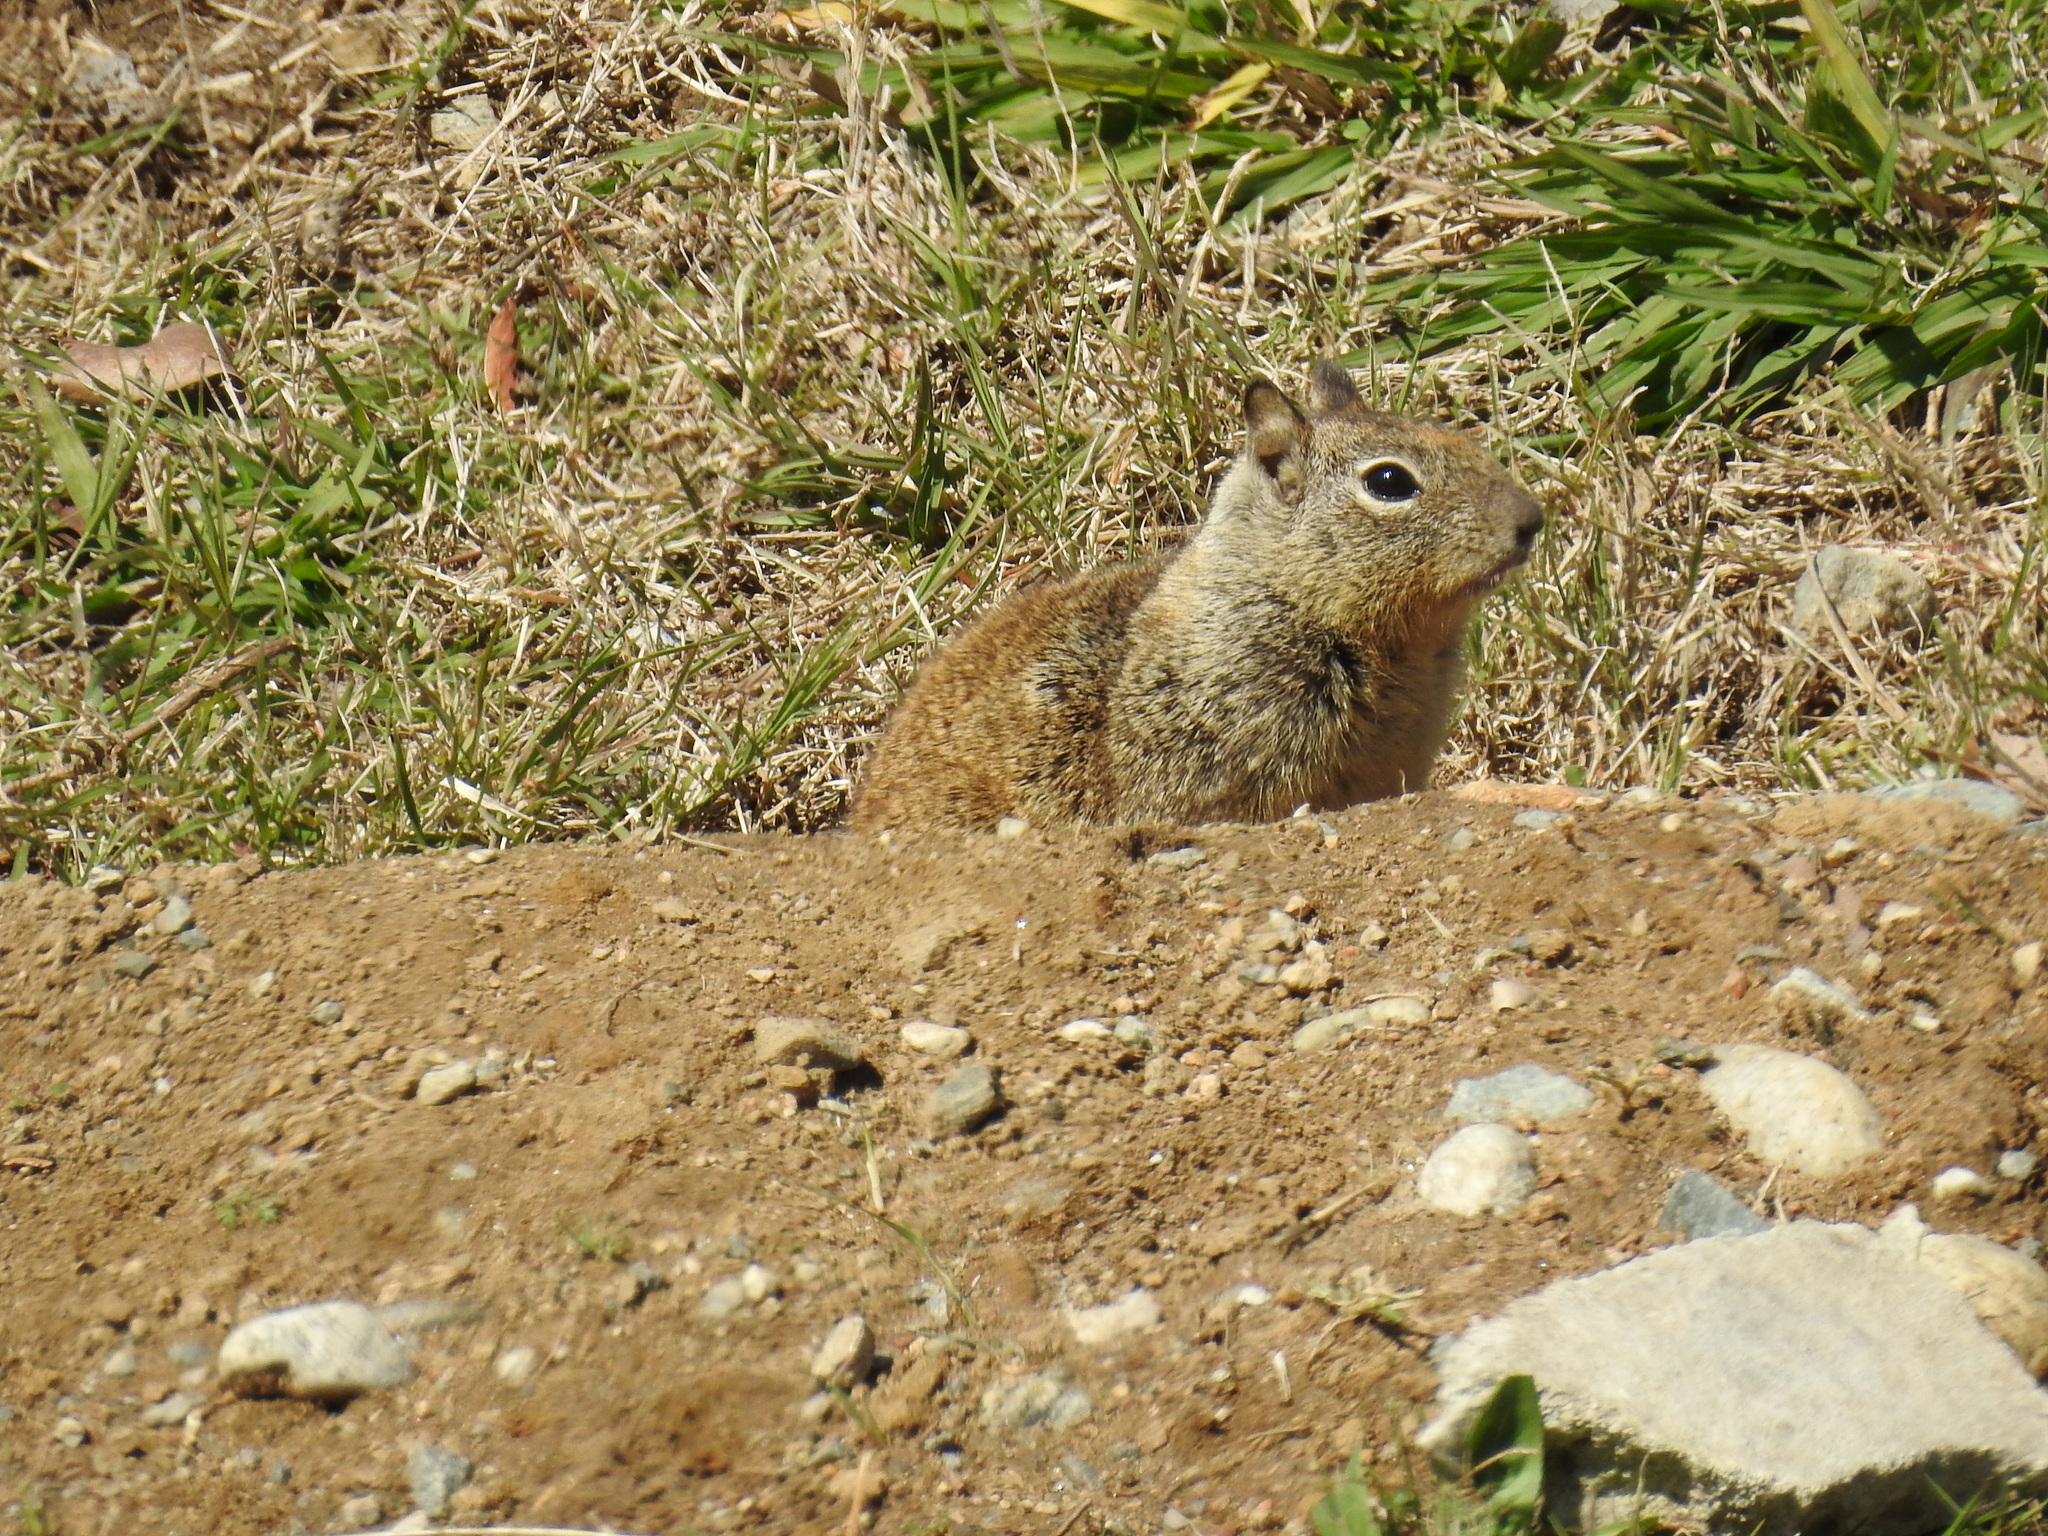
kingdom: Animalia
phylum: Chordata
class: Mammalia
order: Rodentia
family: Sciuridae
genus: Otospermophilus
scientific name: Otospermophilus beecheyi
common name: California ground squirrel
